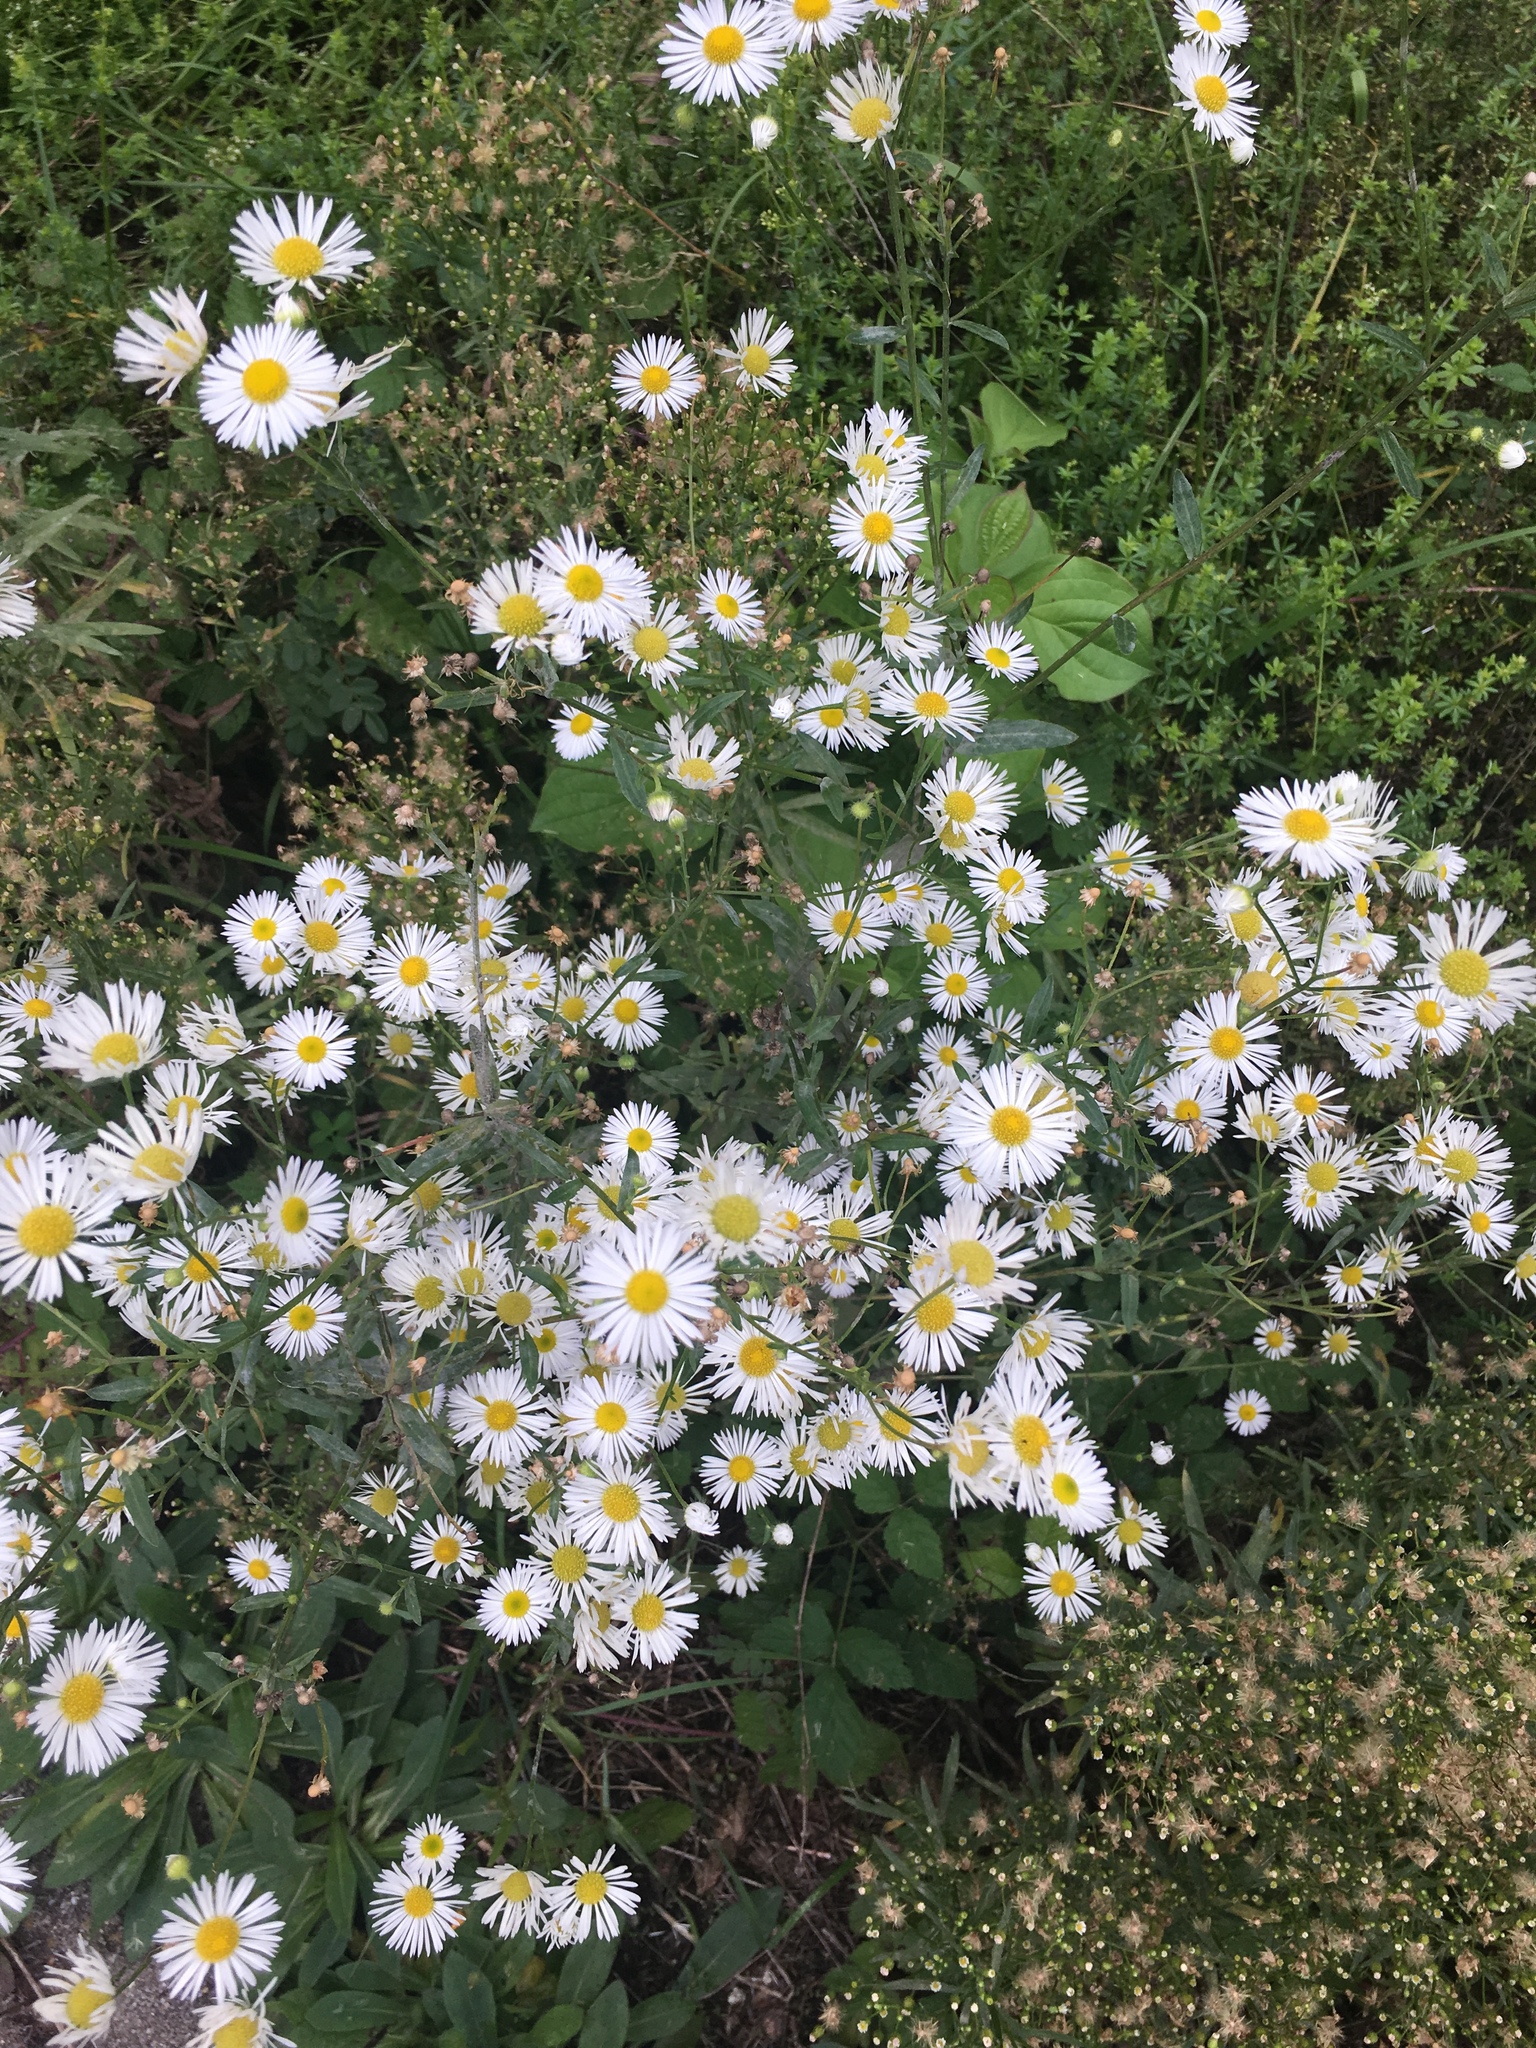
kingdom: Plantae
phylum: Tracheophyta
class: Magnoliopsida
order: Asterales
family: Asteraceae
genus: Erigeron
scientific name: Erigeron annuus
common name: Tall fleabane
